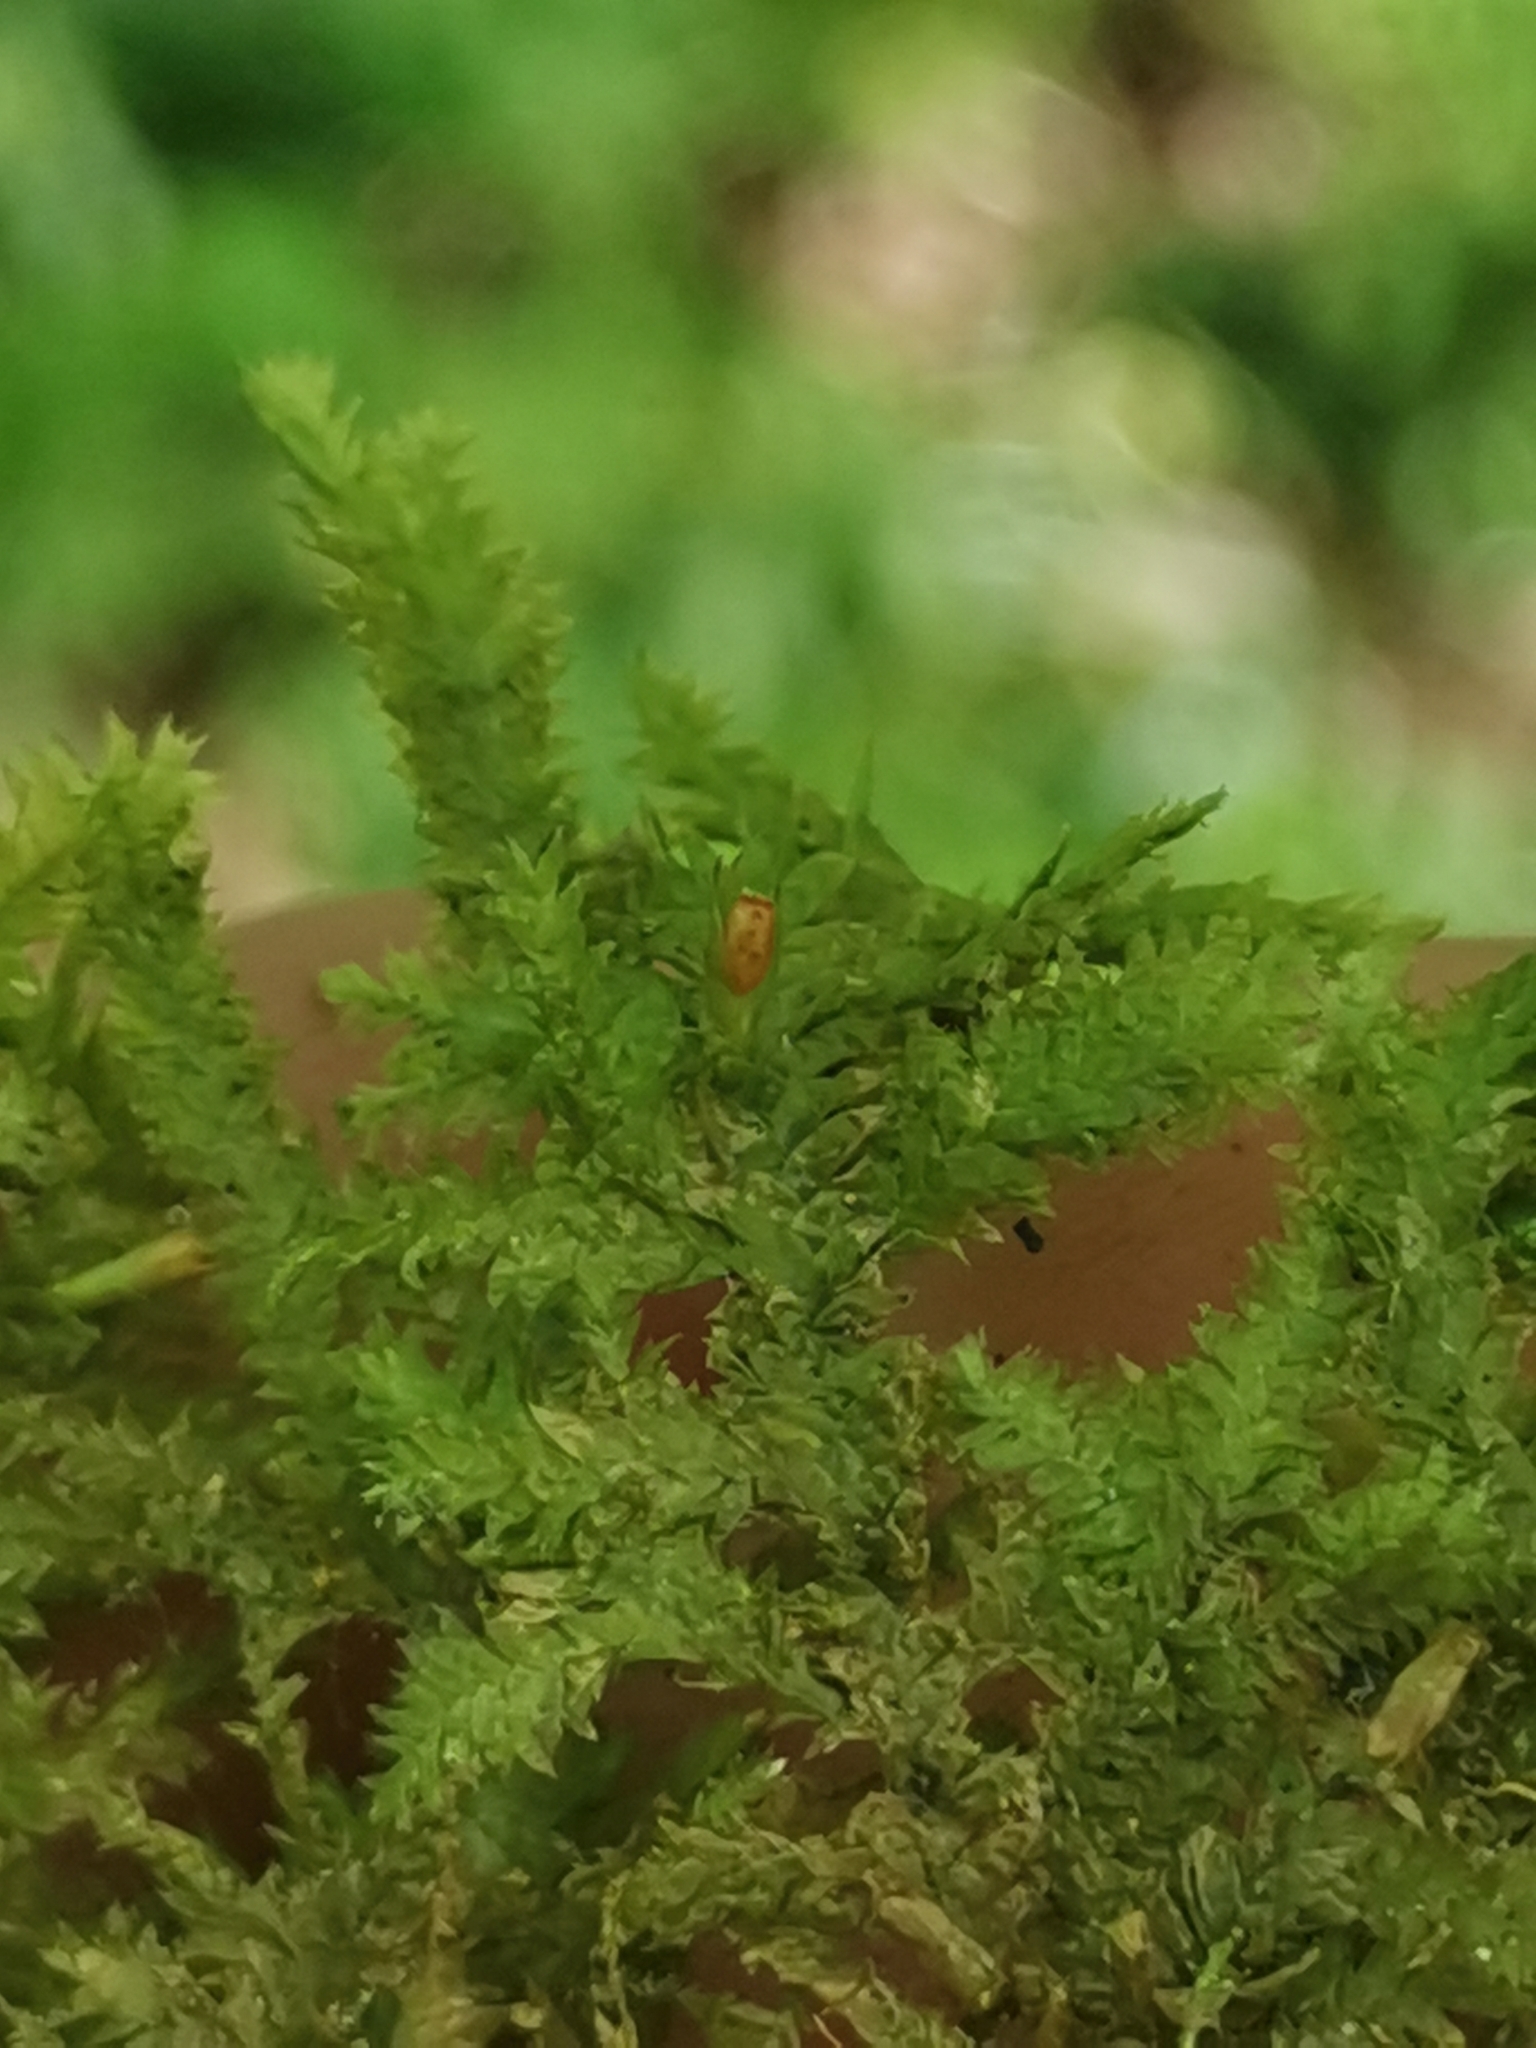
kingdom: Plantae
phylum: Bryophyta
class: Bryopsida
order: Hypnales
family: Neckeraceae
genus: Neckera
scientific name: Neckera pennata
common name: Feathery neckera
